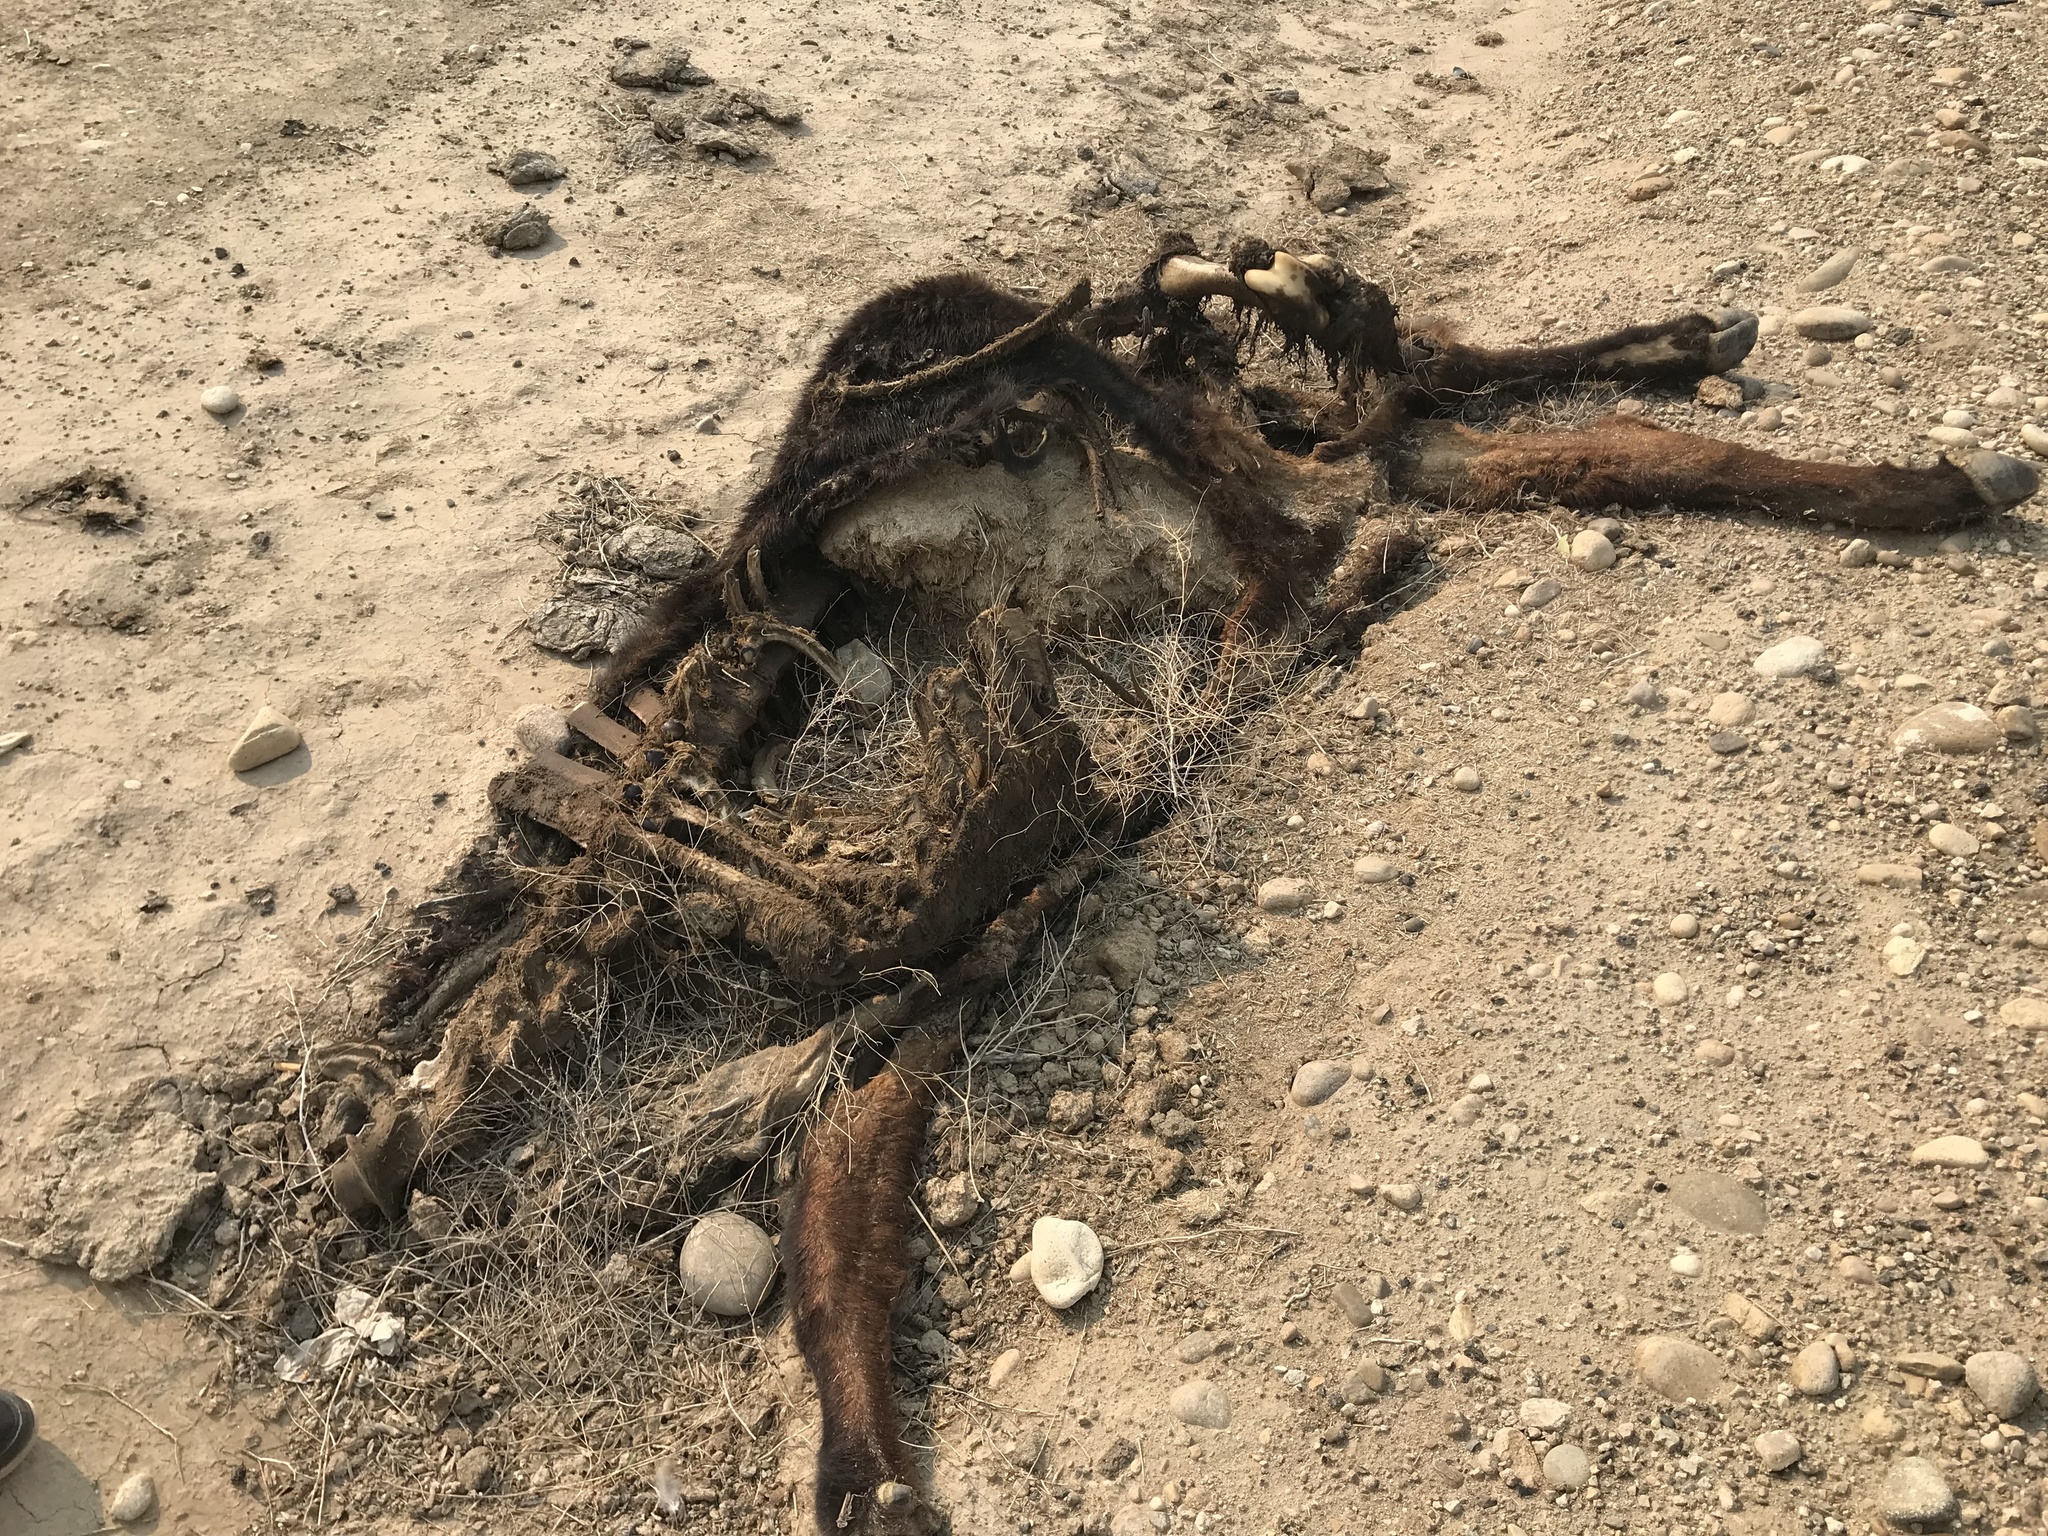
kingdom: Animalia
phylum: Chordata
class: Mammalia
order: Artiodactyla
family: Bovidae
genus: Bos
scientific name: Bos taurus
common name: Domesticated cattle
